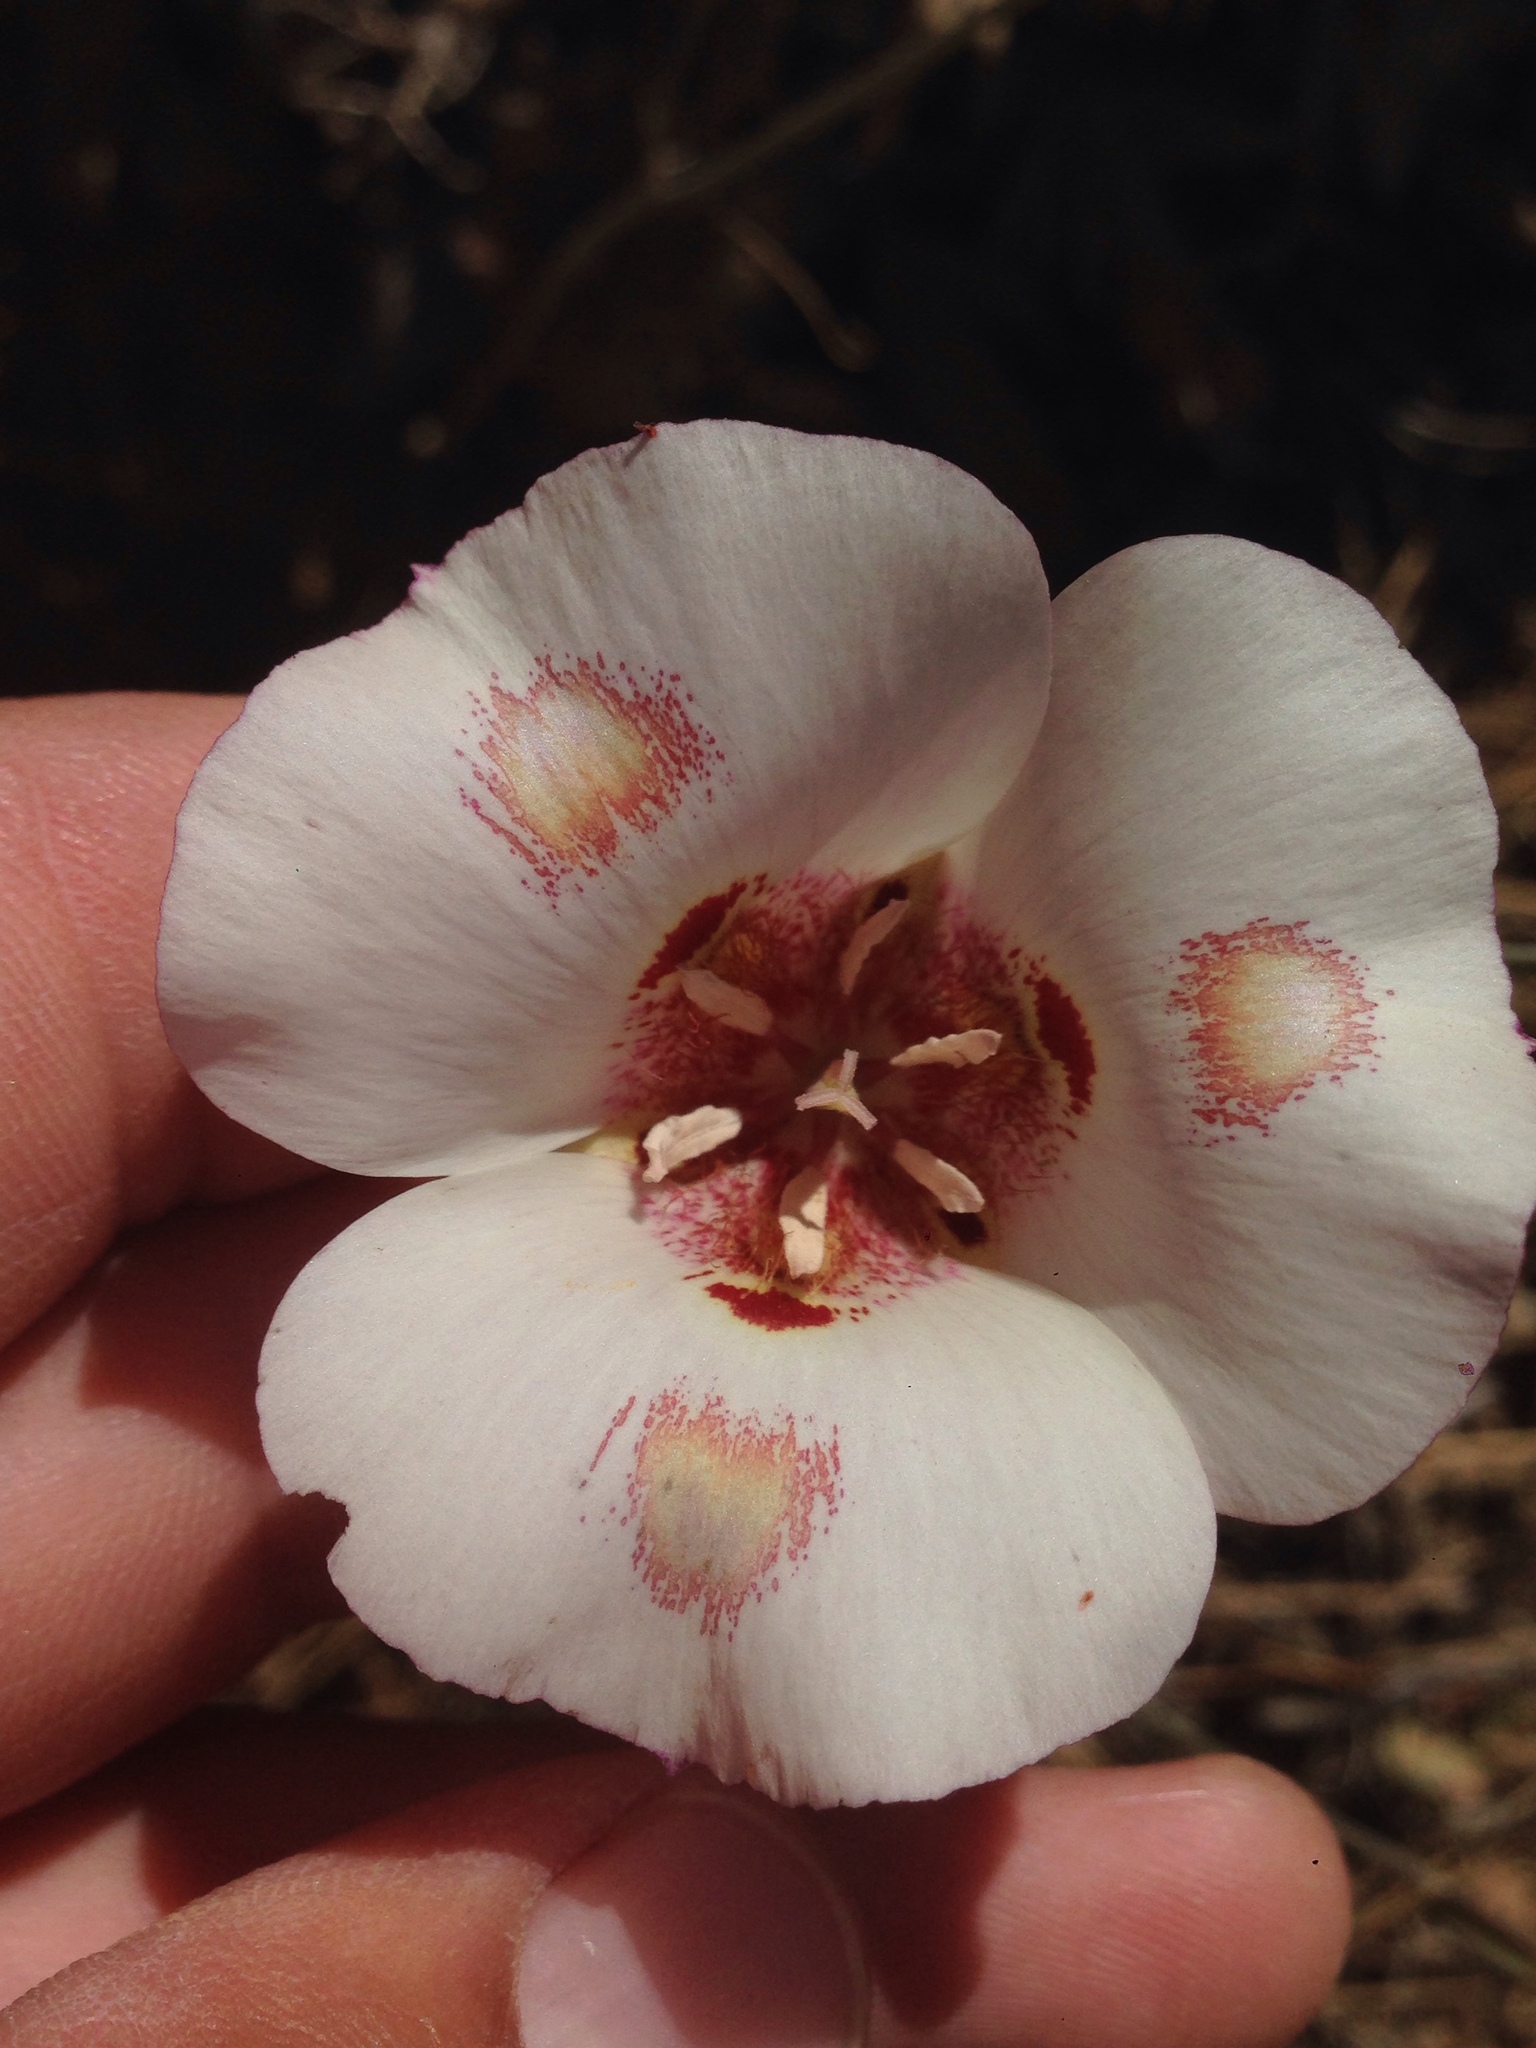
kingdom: Plantae
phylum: Tracheophyta
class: Liliopsida
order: Liliales
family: Liliaceae
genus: Calochortus
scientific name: Calochortus venustus
